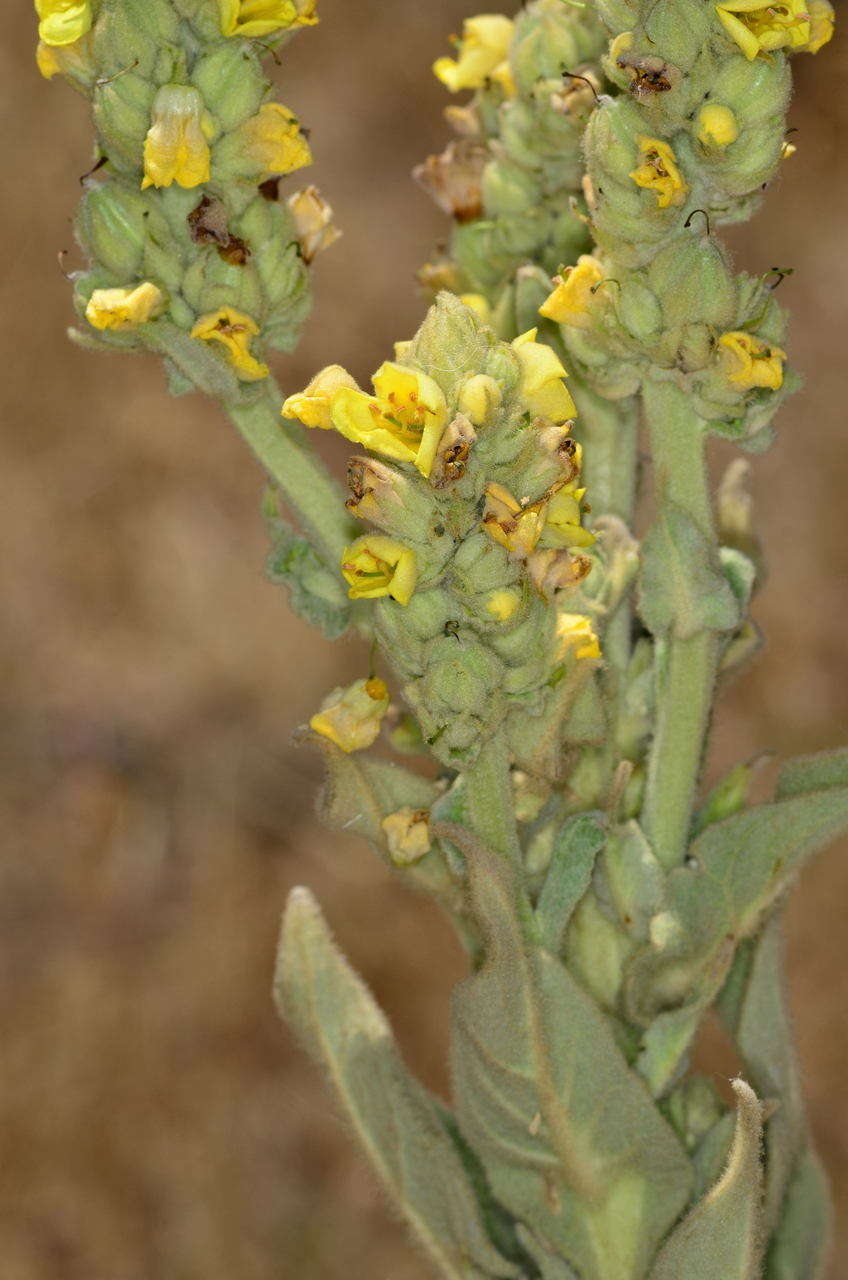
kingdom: Plantae
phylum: Tracheophyta
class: Magnoliopsida
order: Lamiales
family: Scrophulariaceae
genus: Verbascum
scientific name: Verbascum thapsus
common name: Common mullein
